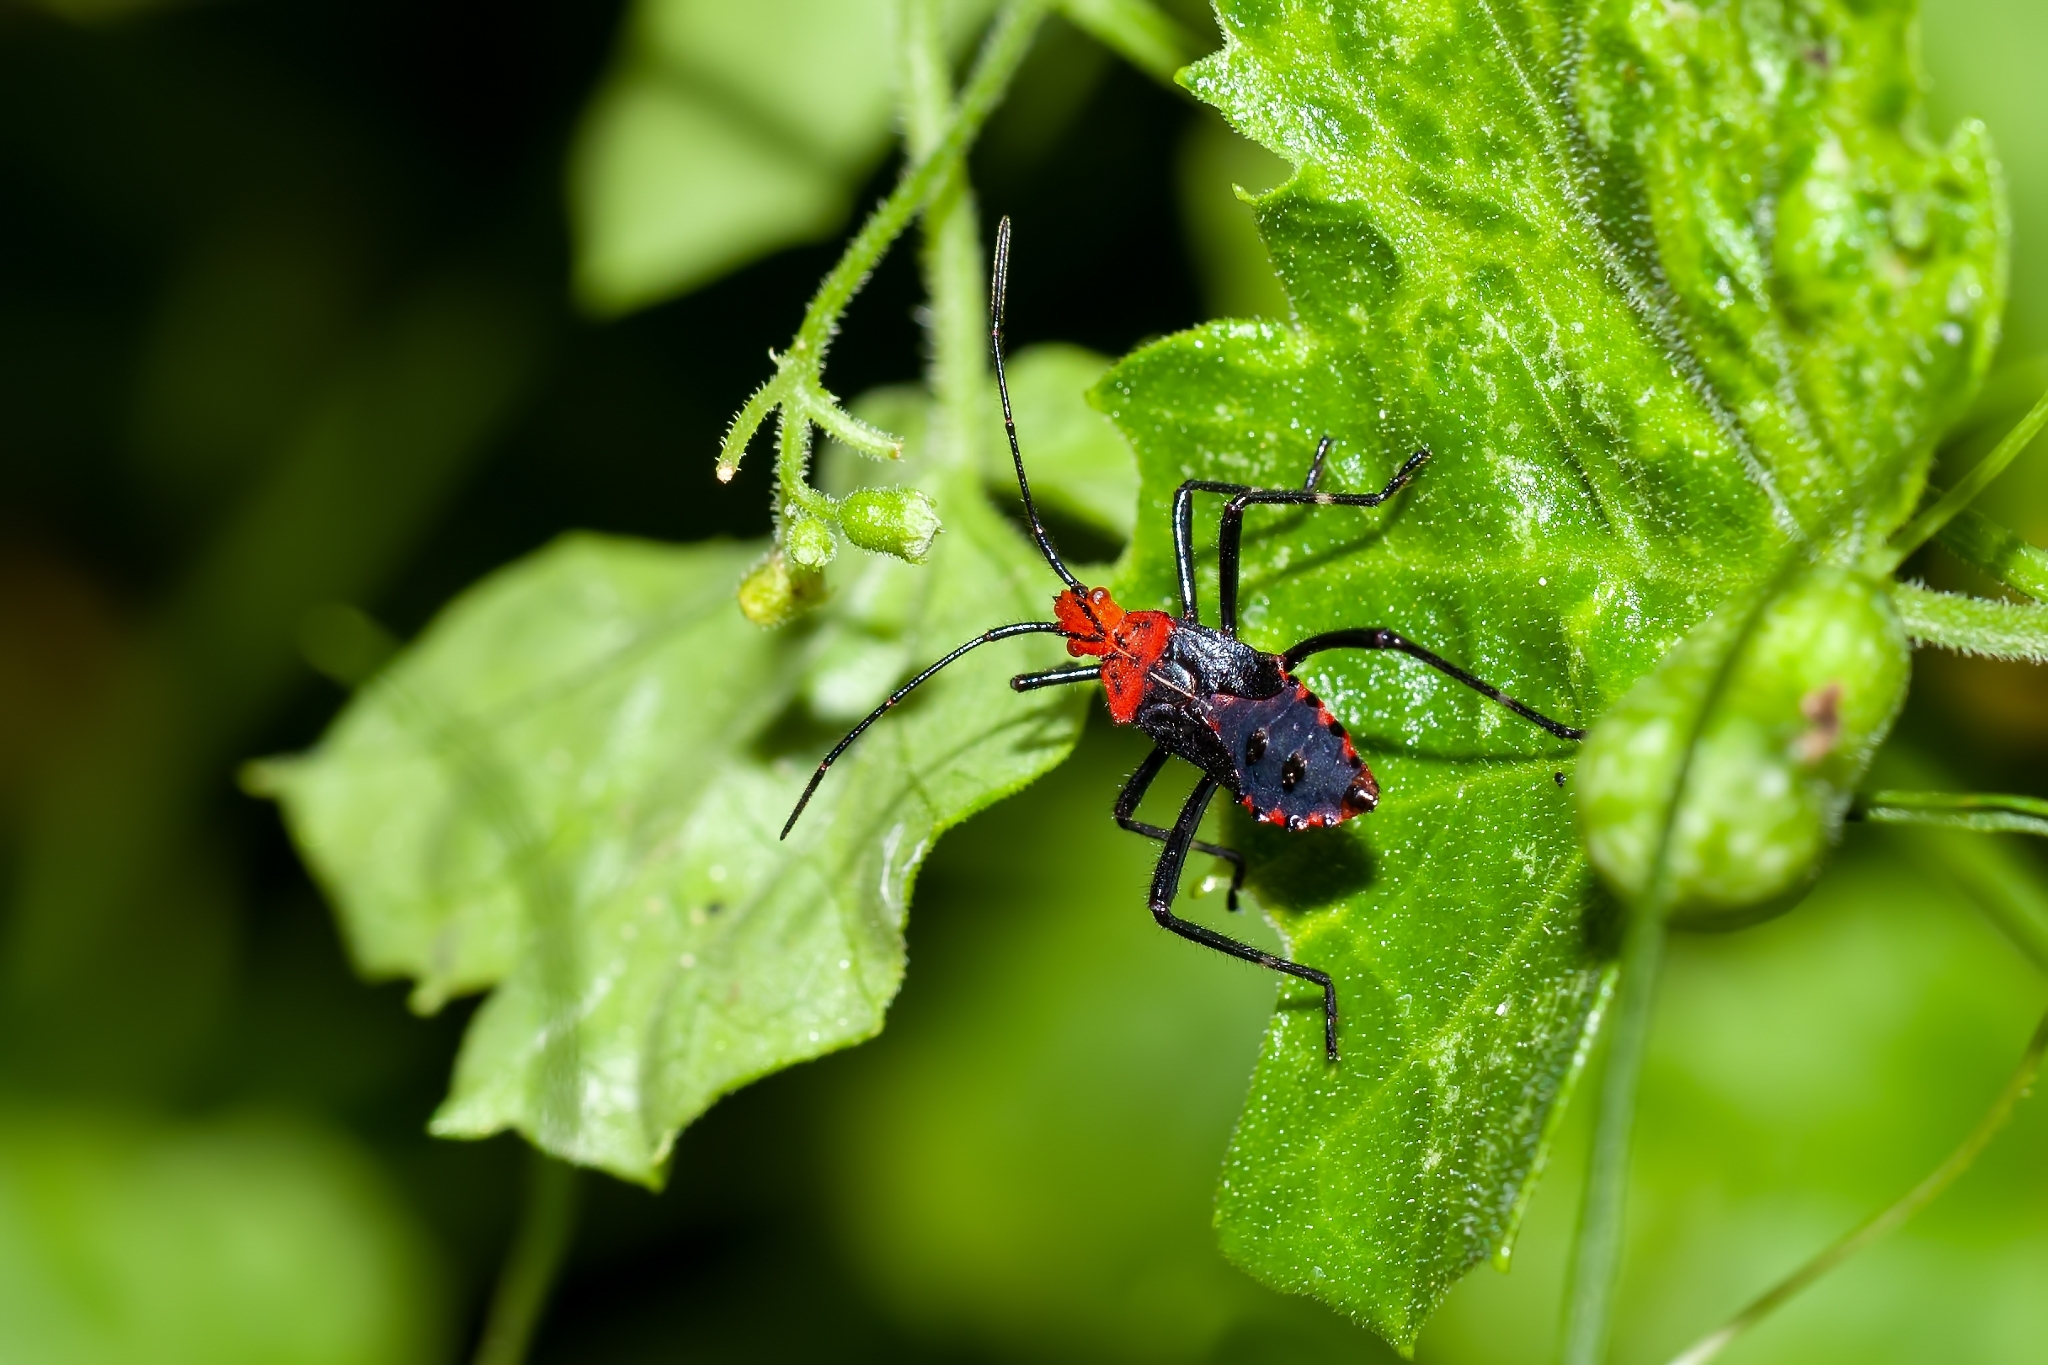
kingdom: Animalia
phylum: Arthropoda
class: Insecta
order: Hemiptera
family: Coreidae
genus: Phthiacnemia
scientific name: Phthiacnemia picta
